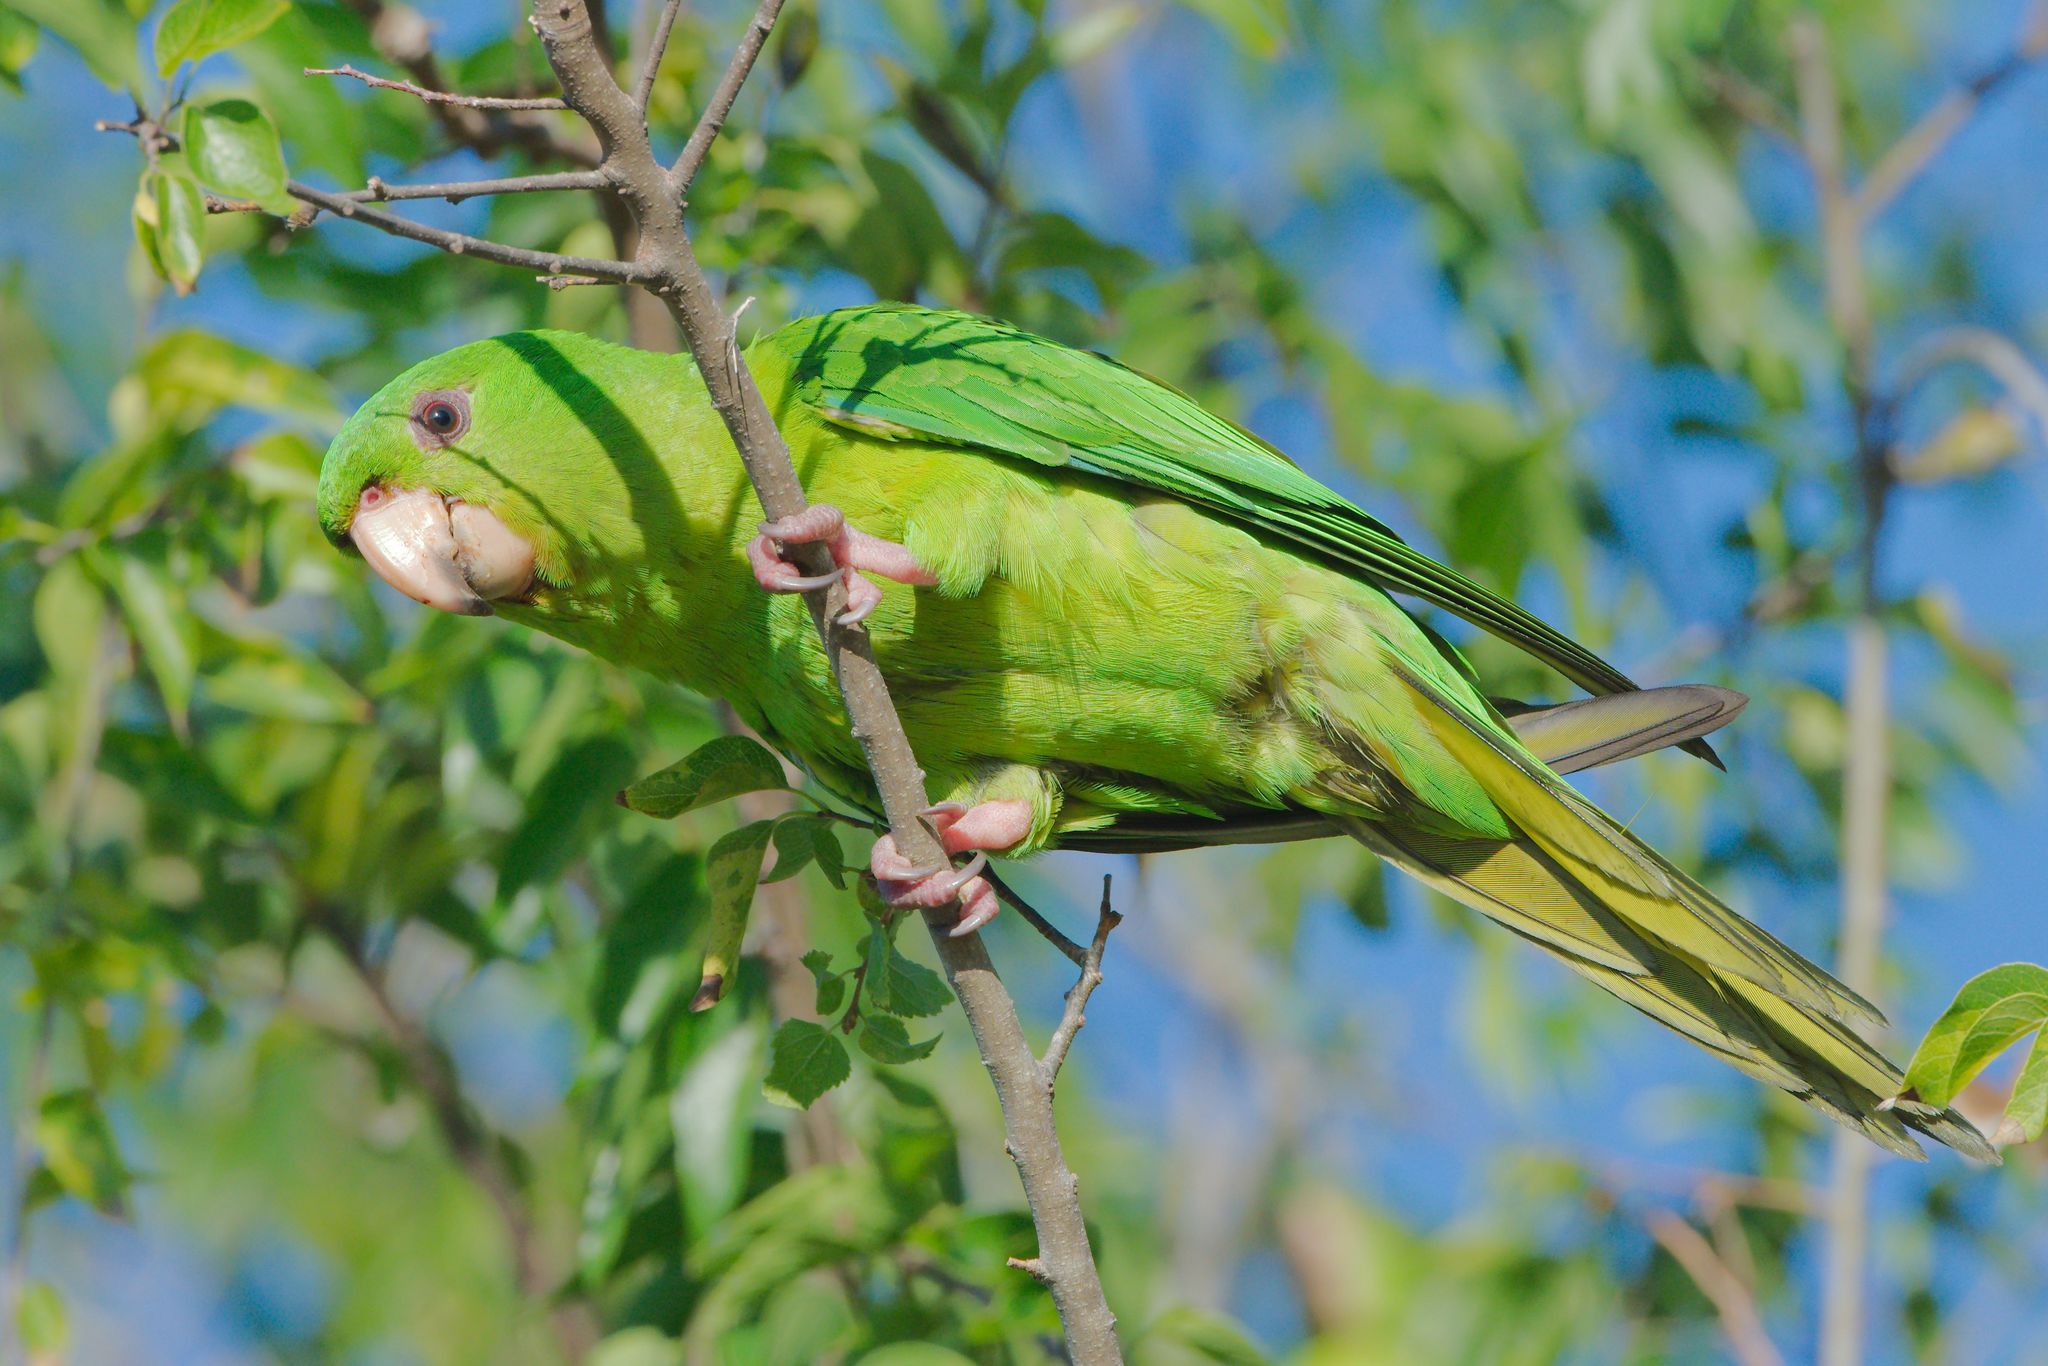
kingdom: Animalia
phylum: Chordata
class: Aves
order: Psittaciformes
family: Psittacidae
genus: Aratinga
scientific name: Aratinga holochlora
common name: Green parakeet
